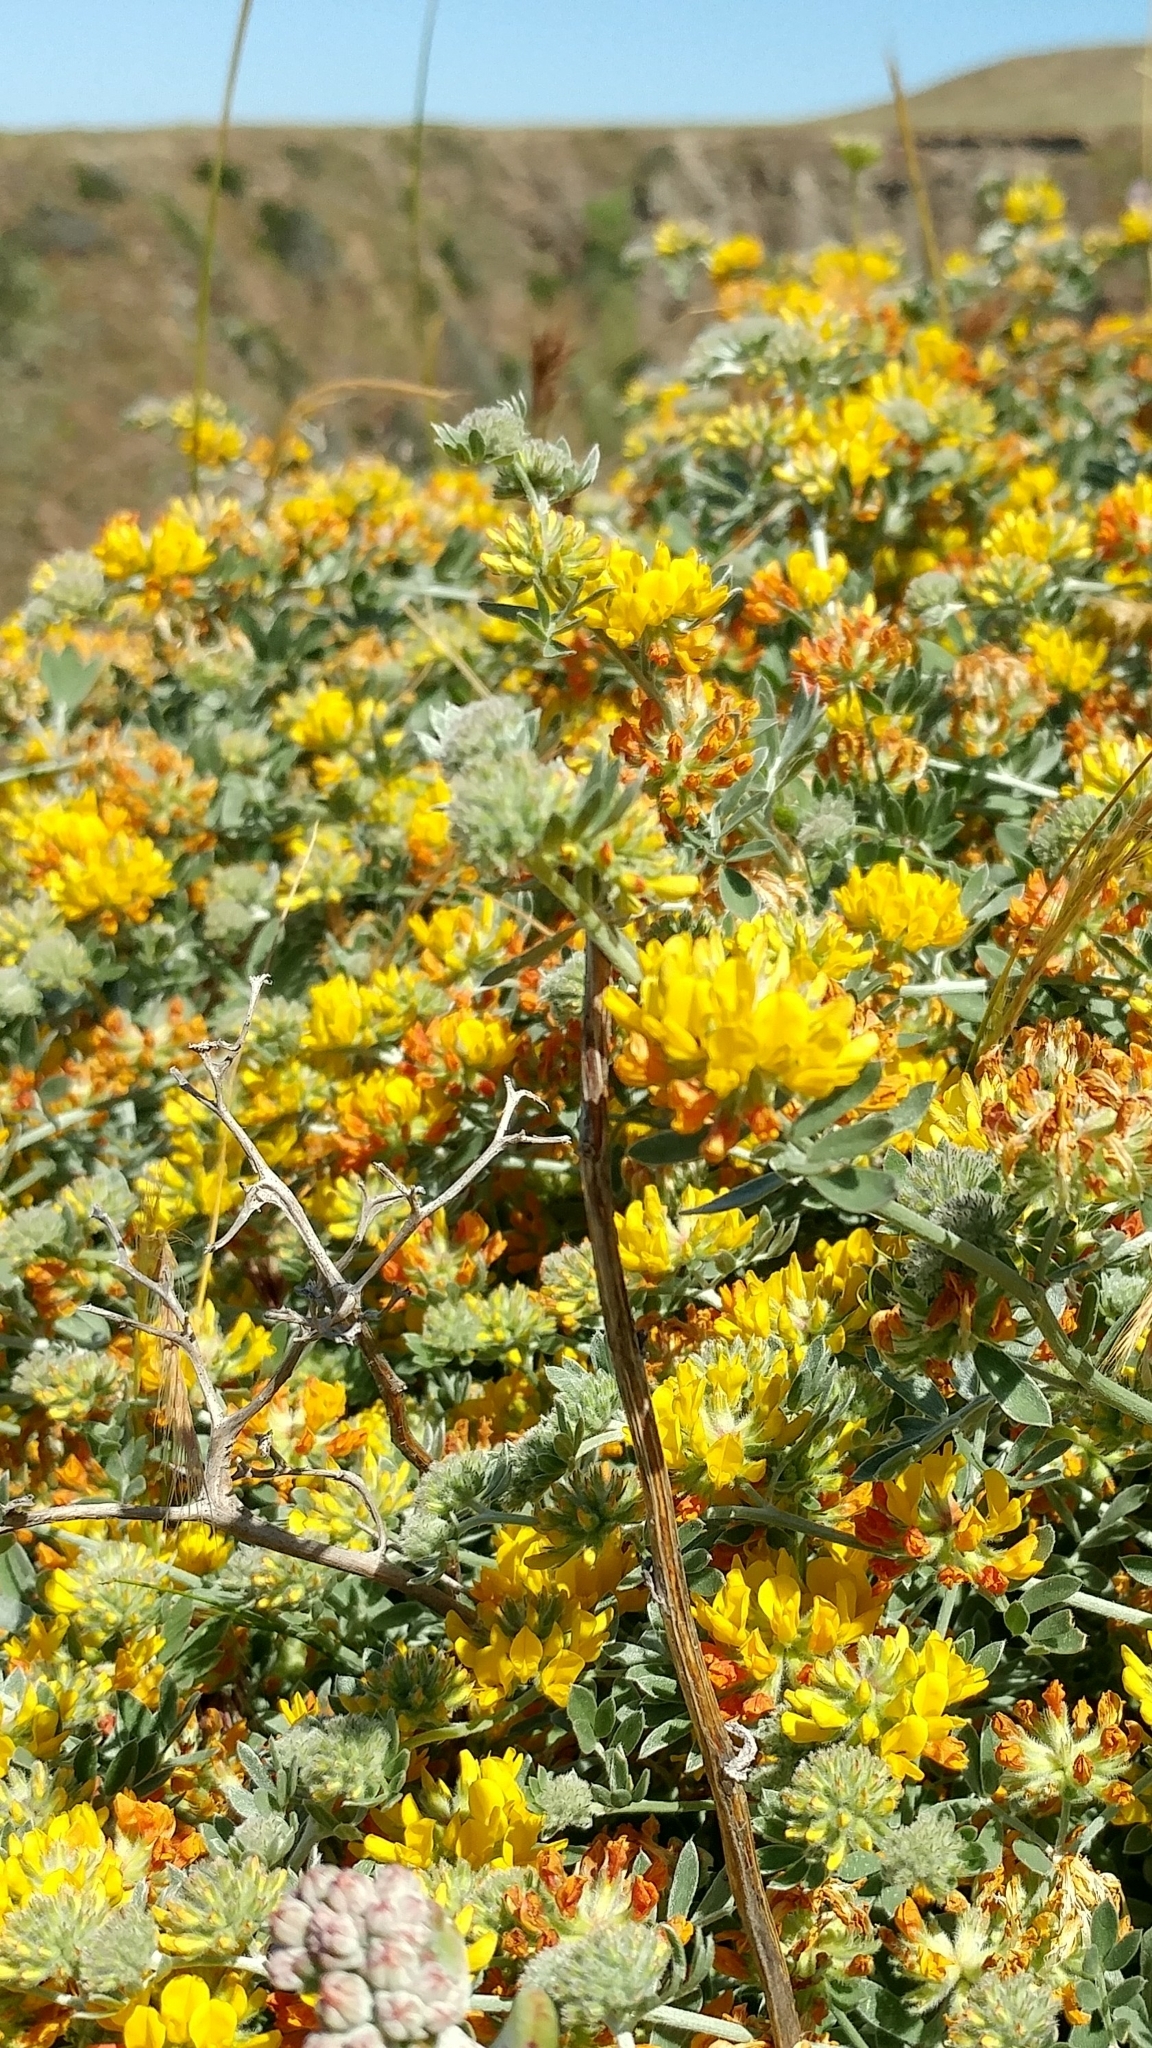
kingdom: Plantae
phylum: Tracheophyta
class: Magnoliopsida
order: Fabales
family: Fabaceae
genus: Acmispon
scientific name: Acmispon argophyllus
